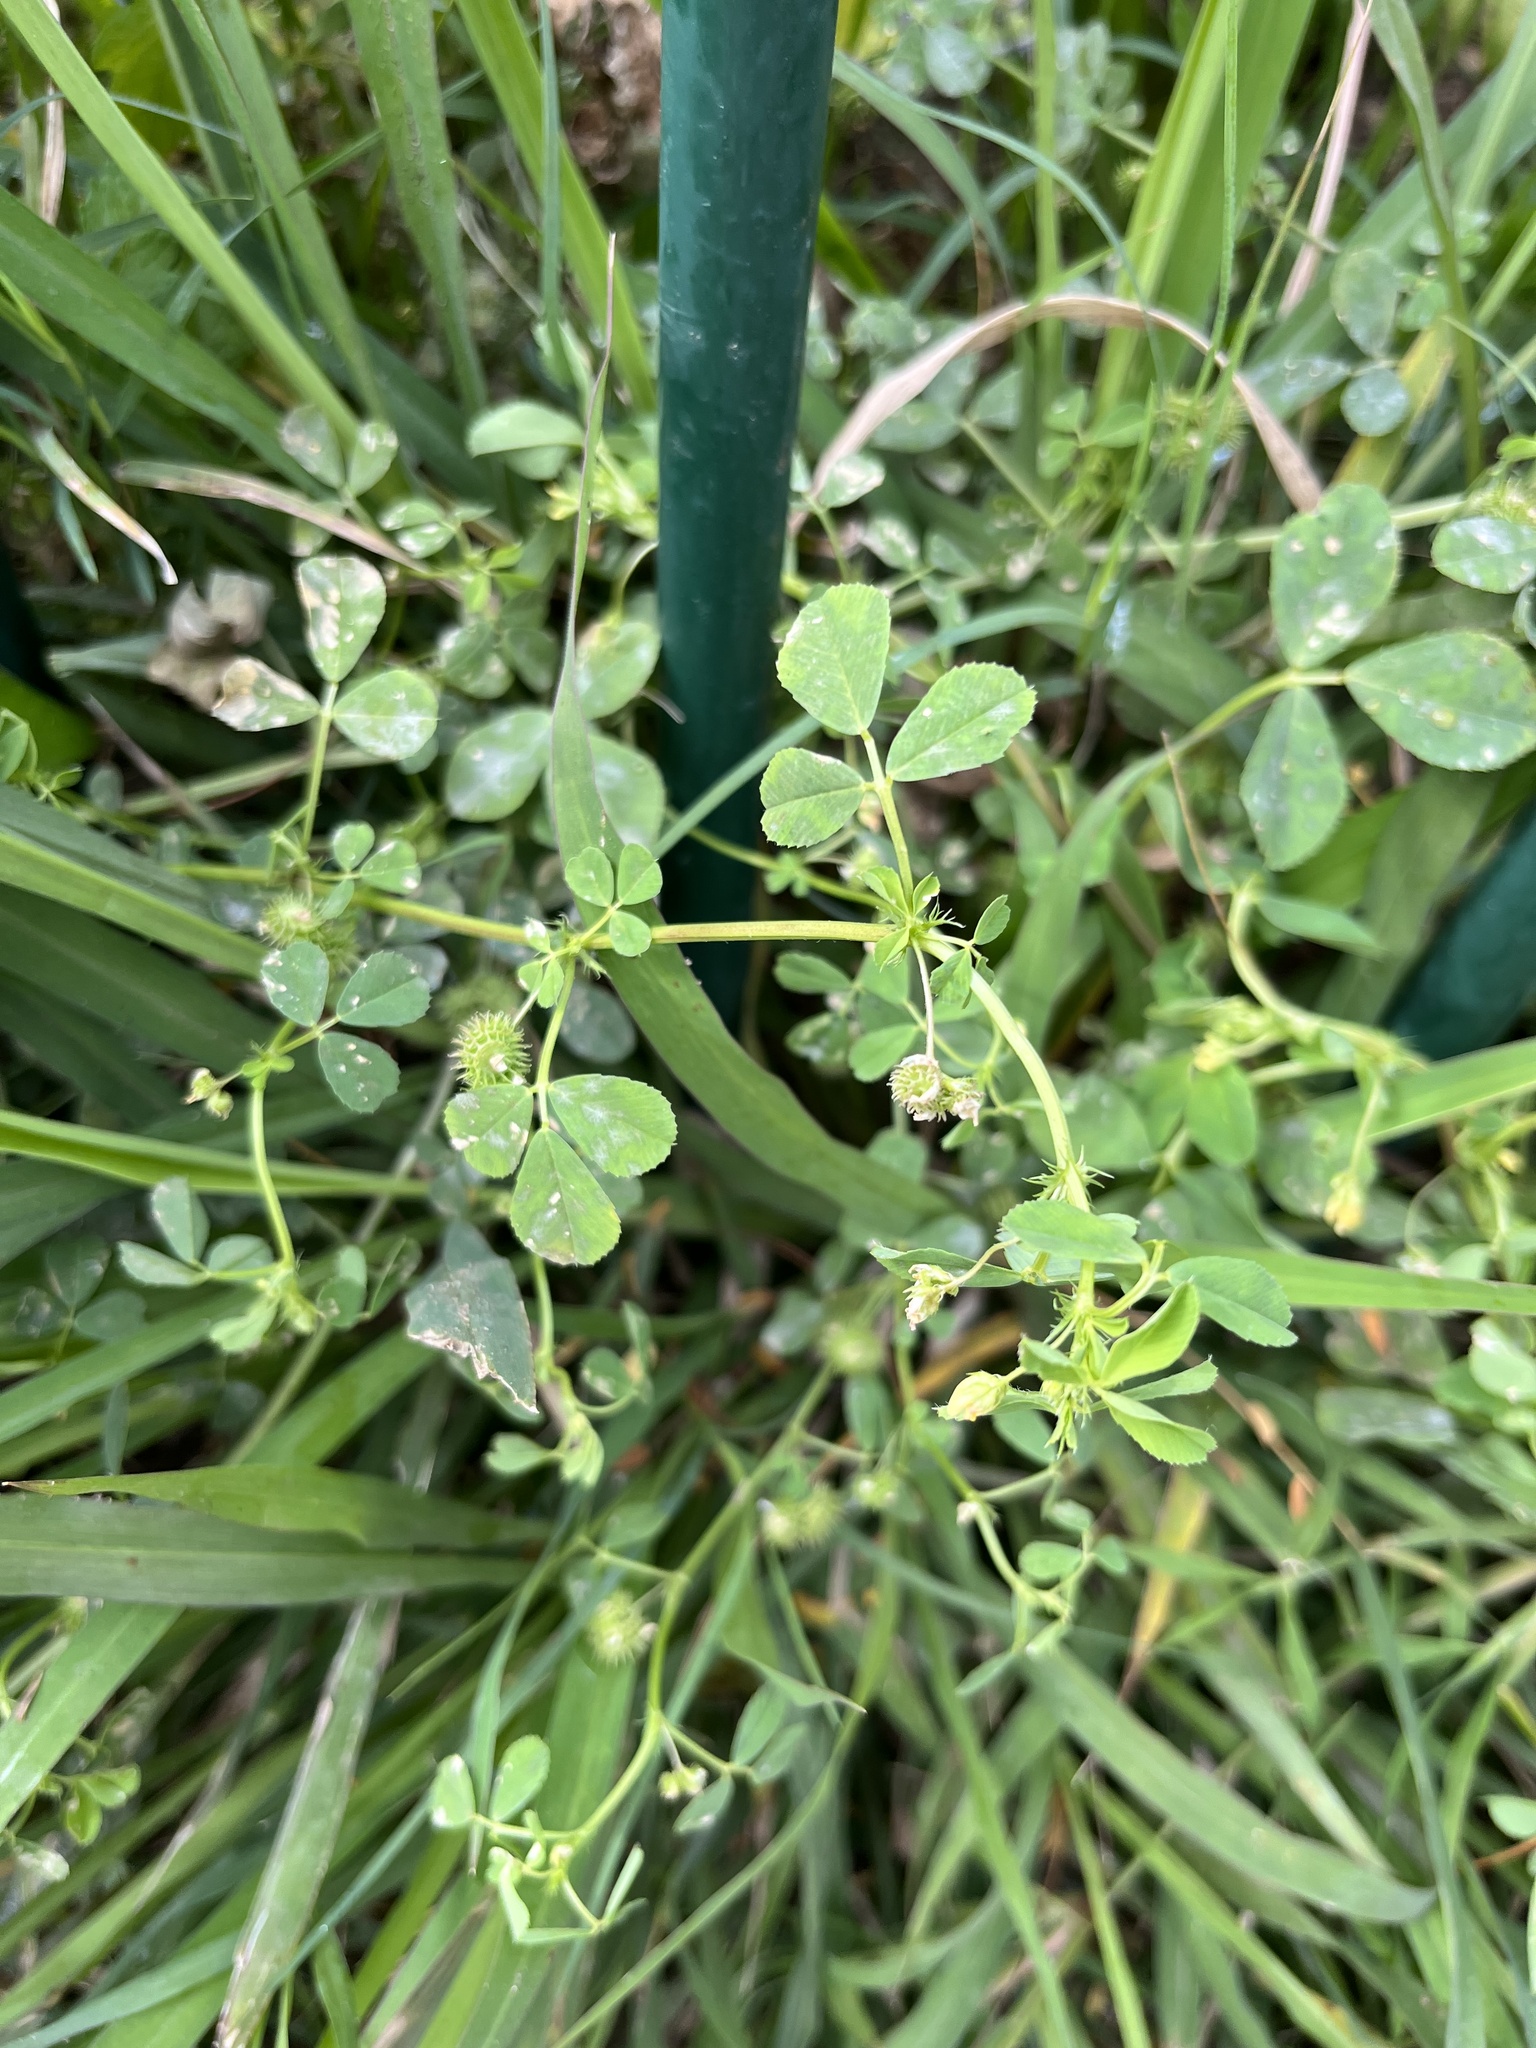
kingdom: Plantae
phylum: Tracheophyta
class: Magnoliopsida
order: Fabales
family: Fabaceae
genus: Medicago
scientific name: Medicago polymorpha
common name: Burclover
